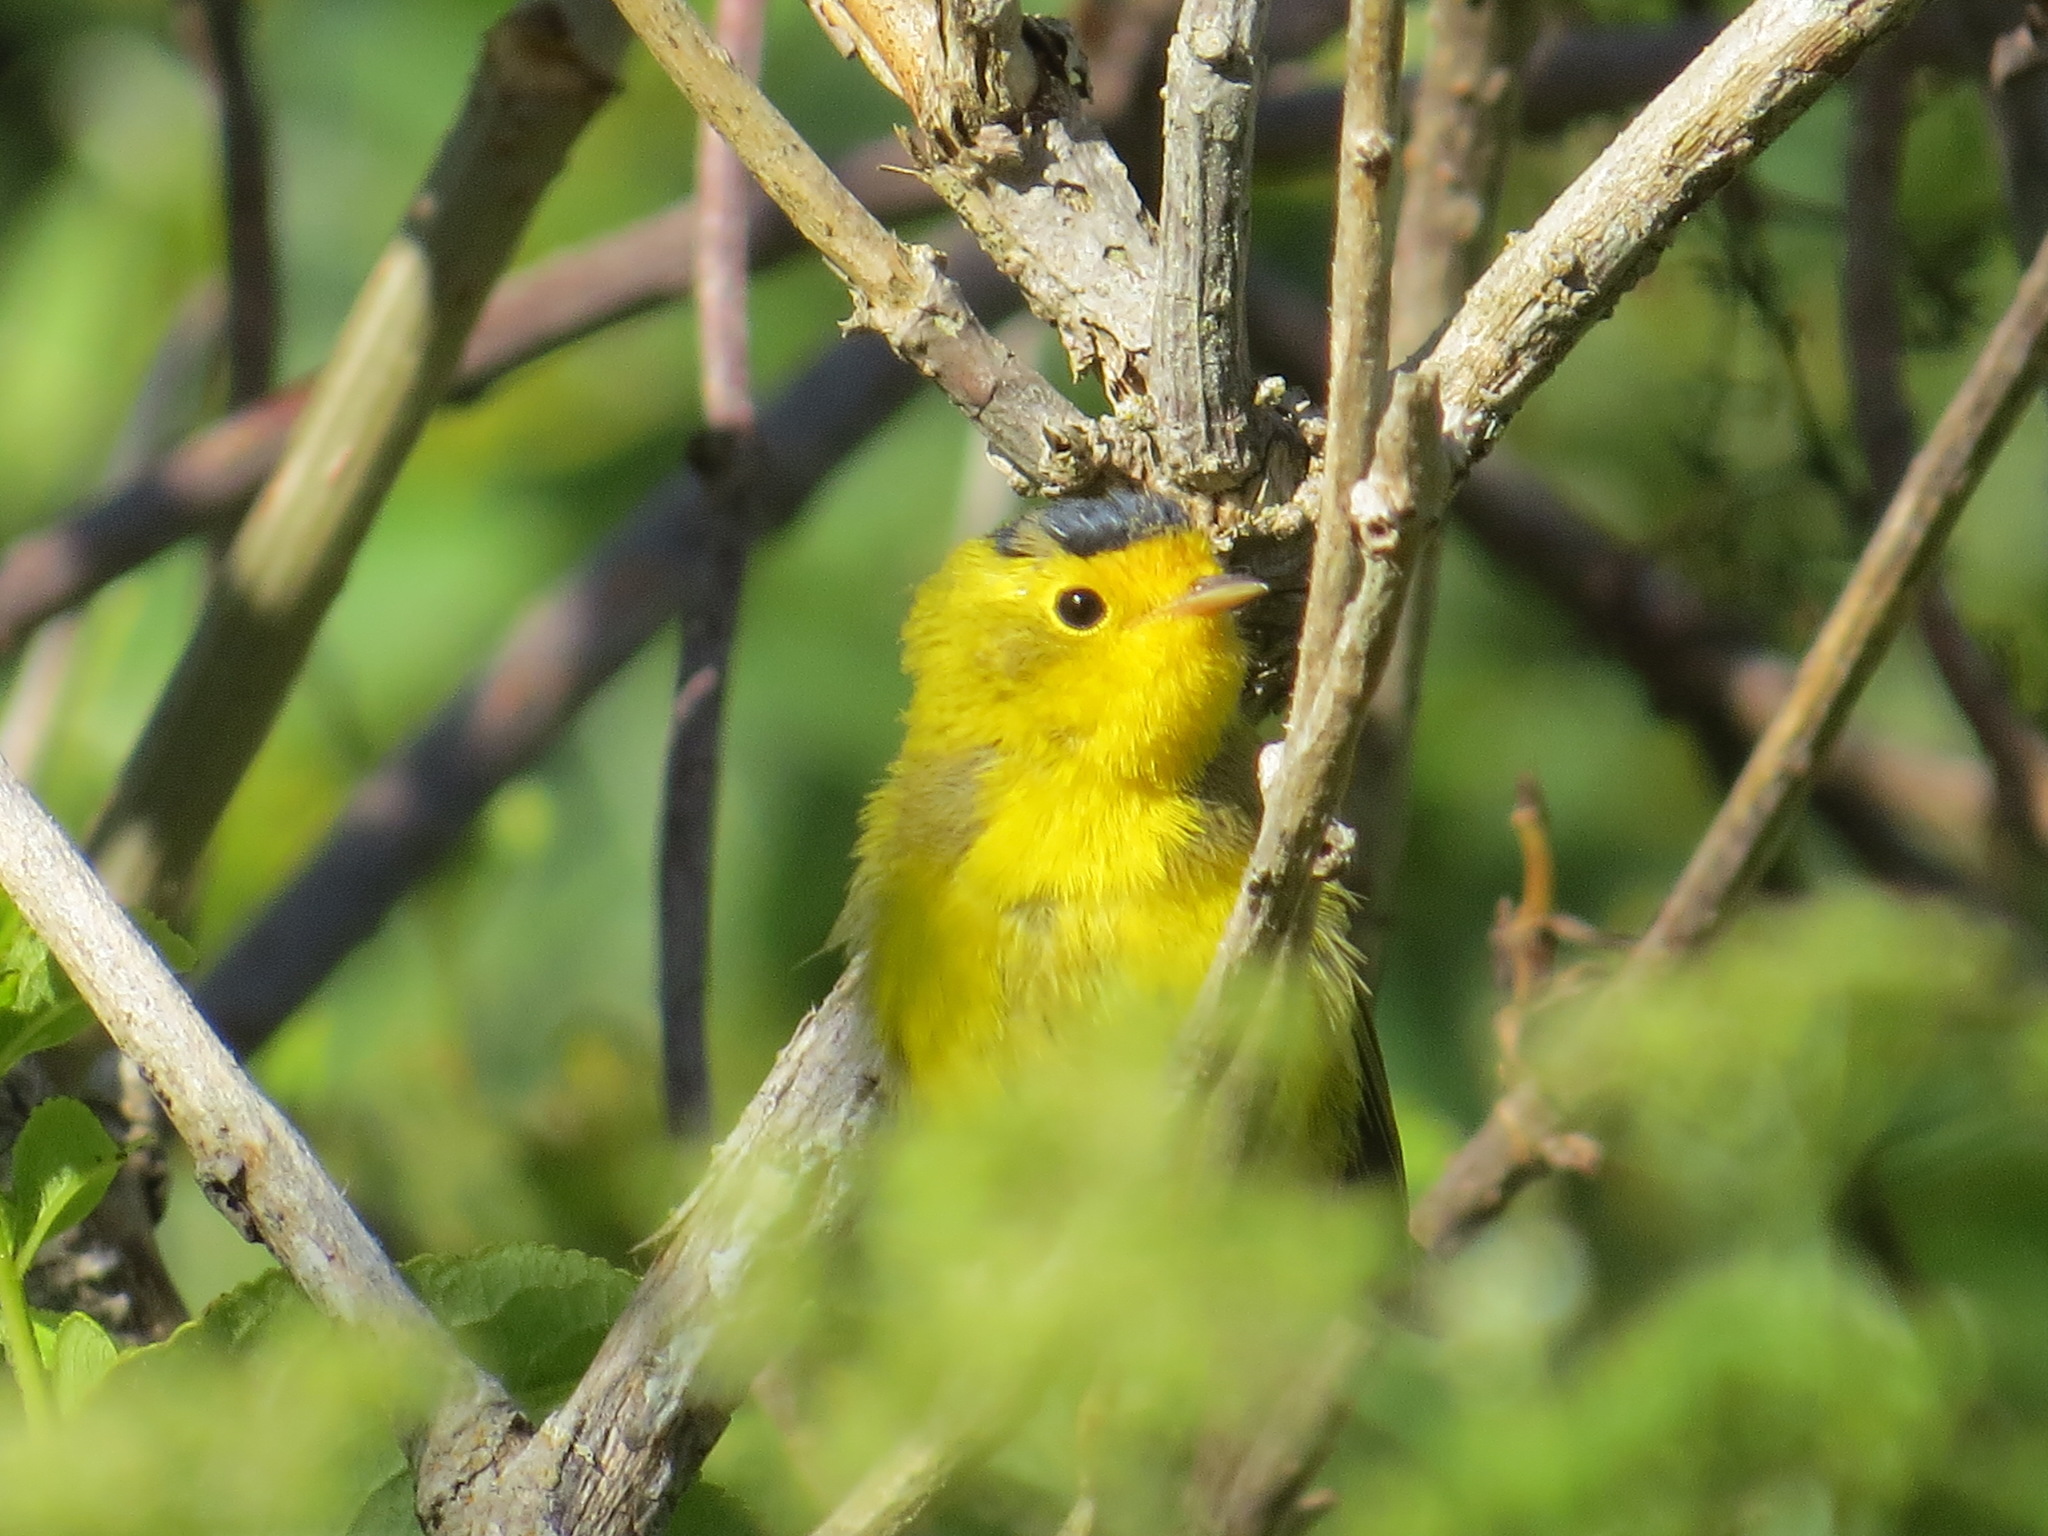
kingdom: Animalia
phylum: Chordata
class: Aves
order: Passeriformes
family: Parulidae
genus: Cardellina
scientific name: Cardellina pusilla
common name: Wilson's warbler
